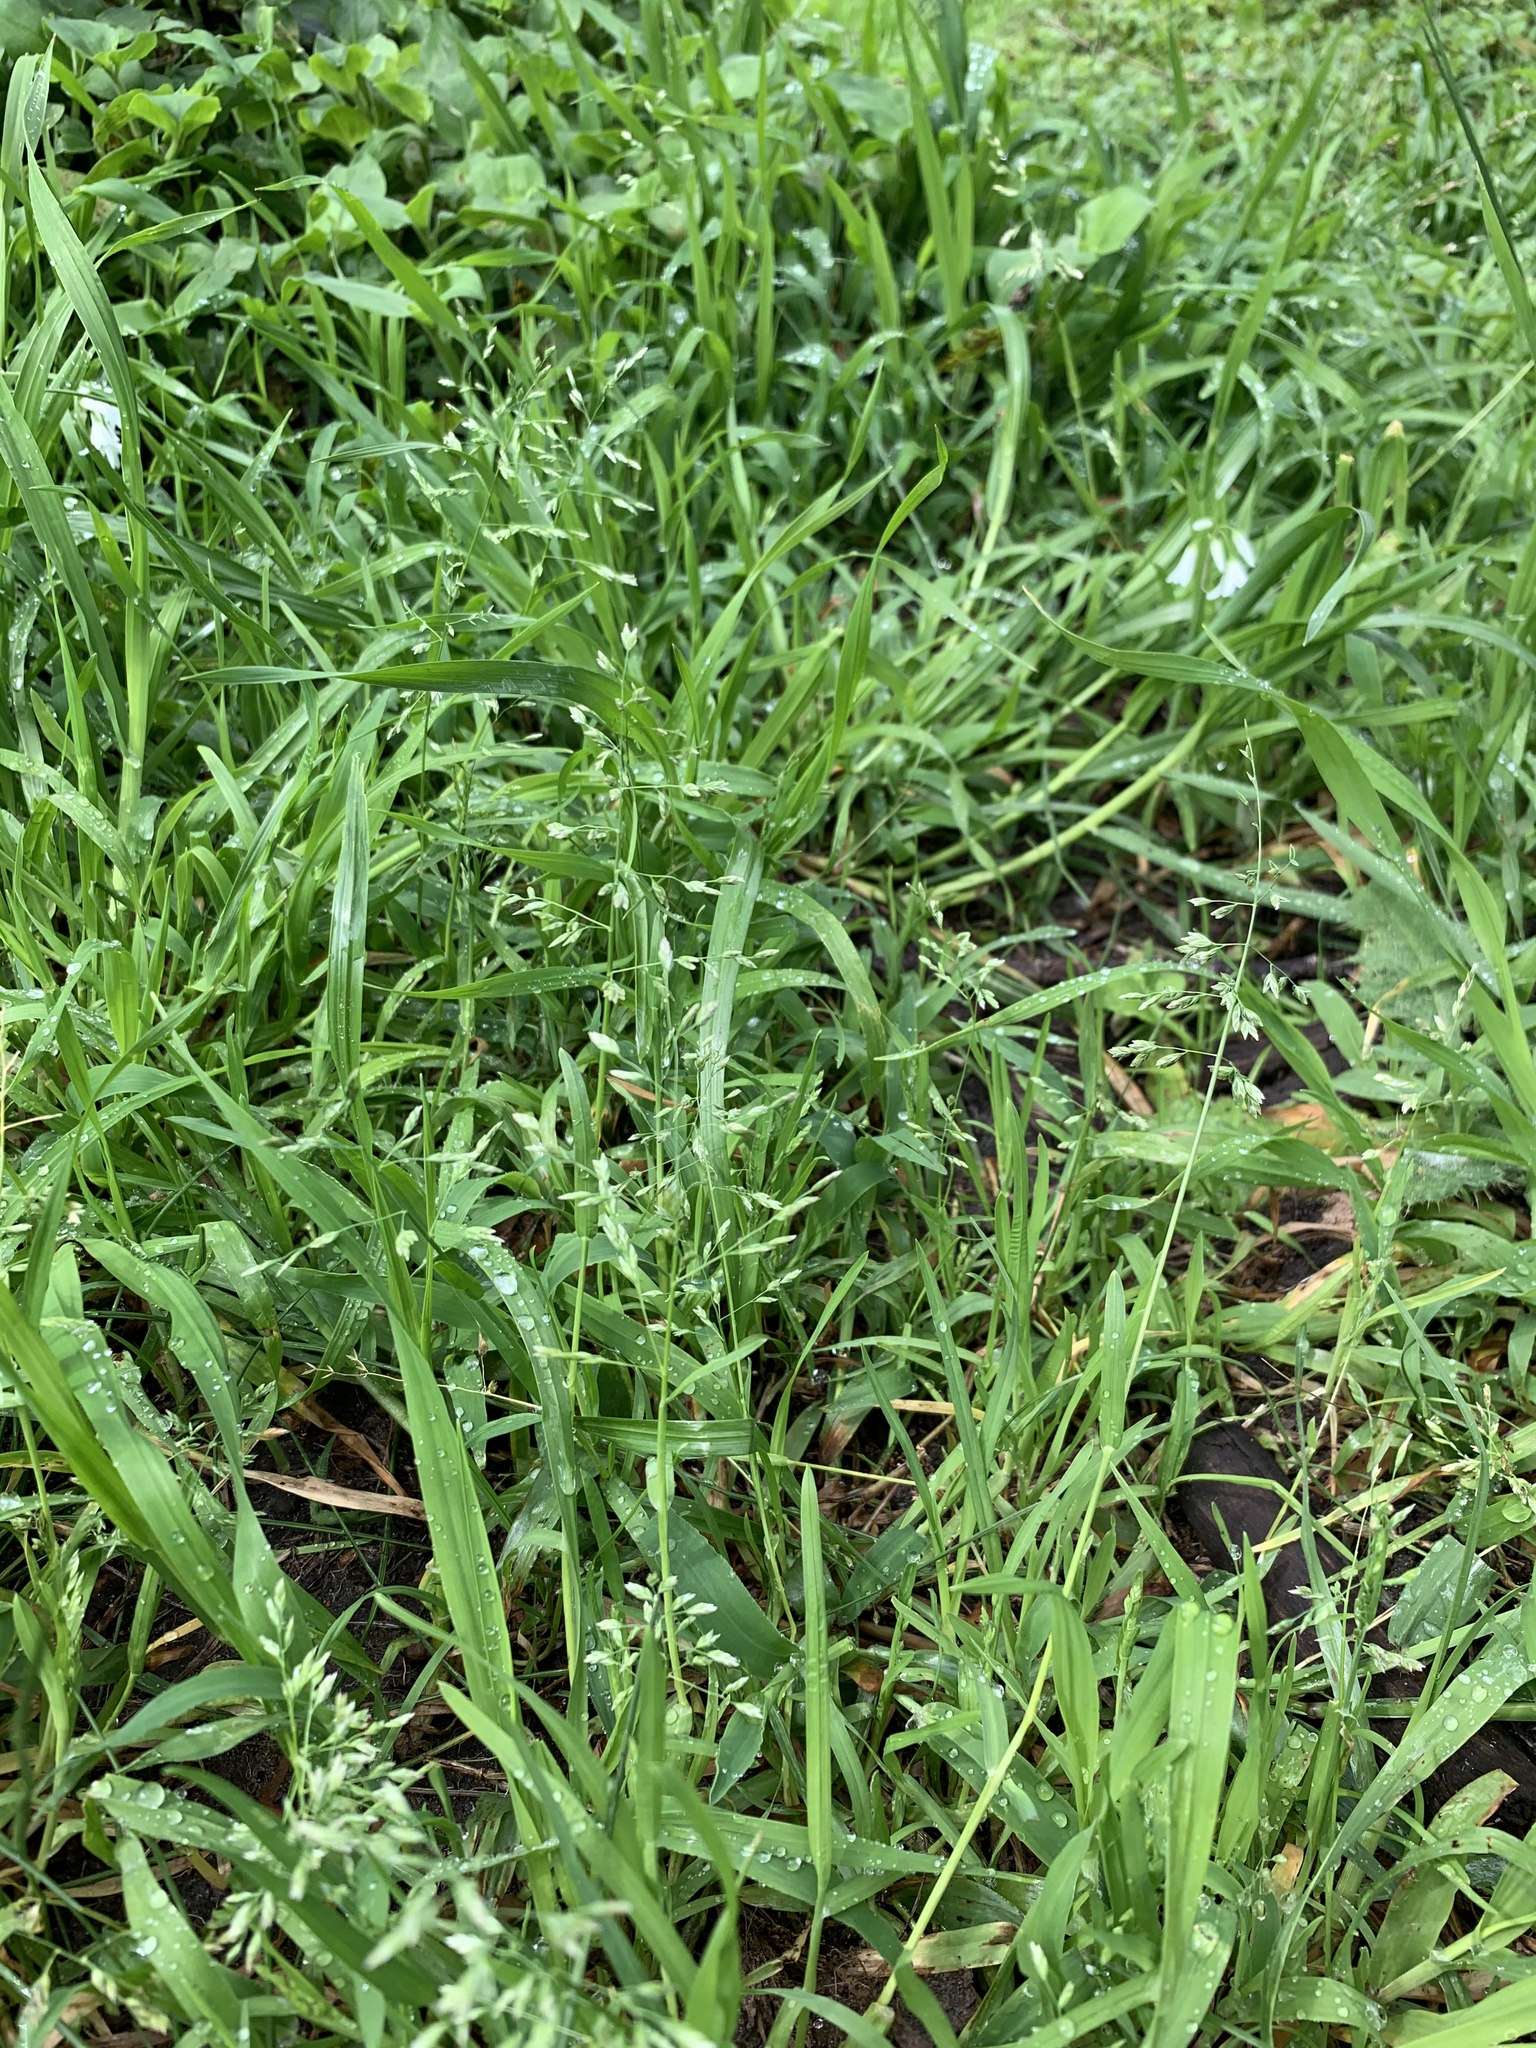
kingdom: Plantae
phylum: Tracheophyta
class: Liliopsida
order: Poales
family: Poaceae
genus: Poa
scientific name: Poa annua
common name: Annual bluegrass
